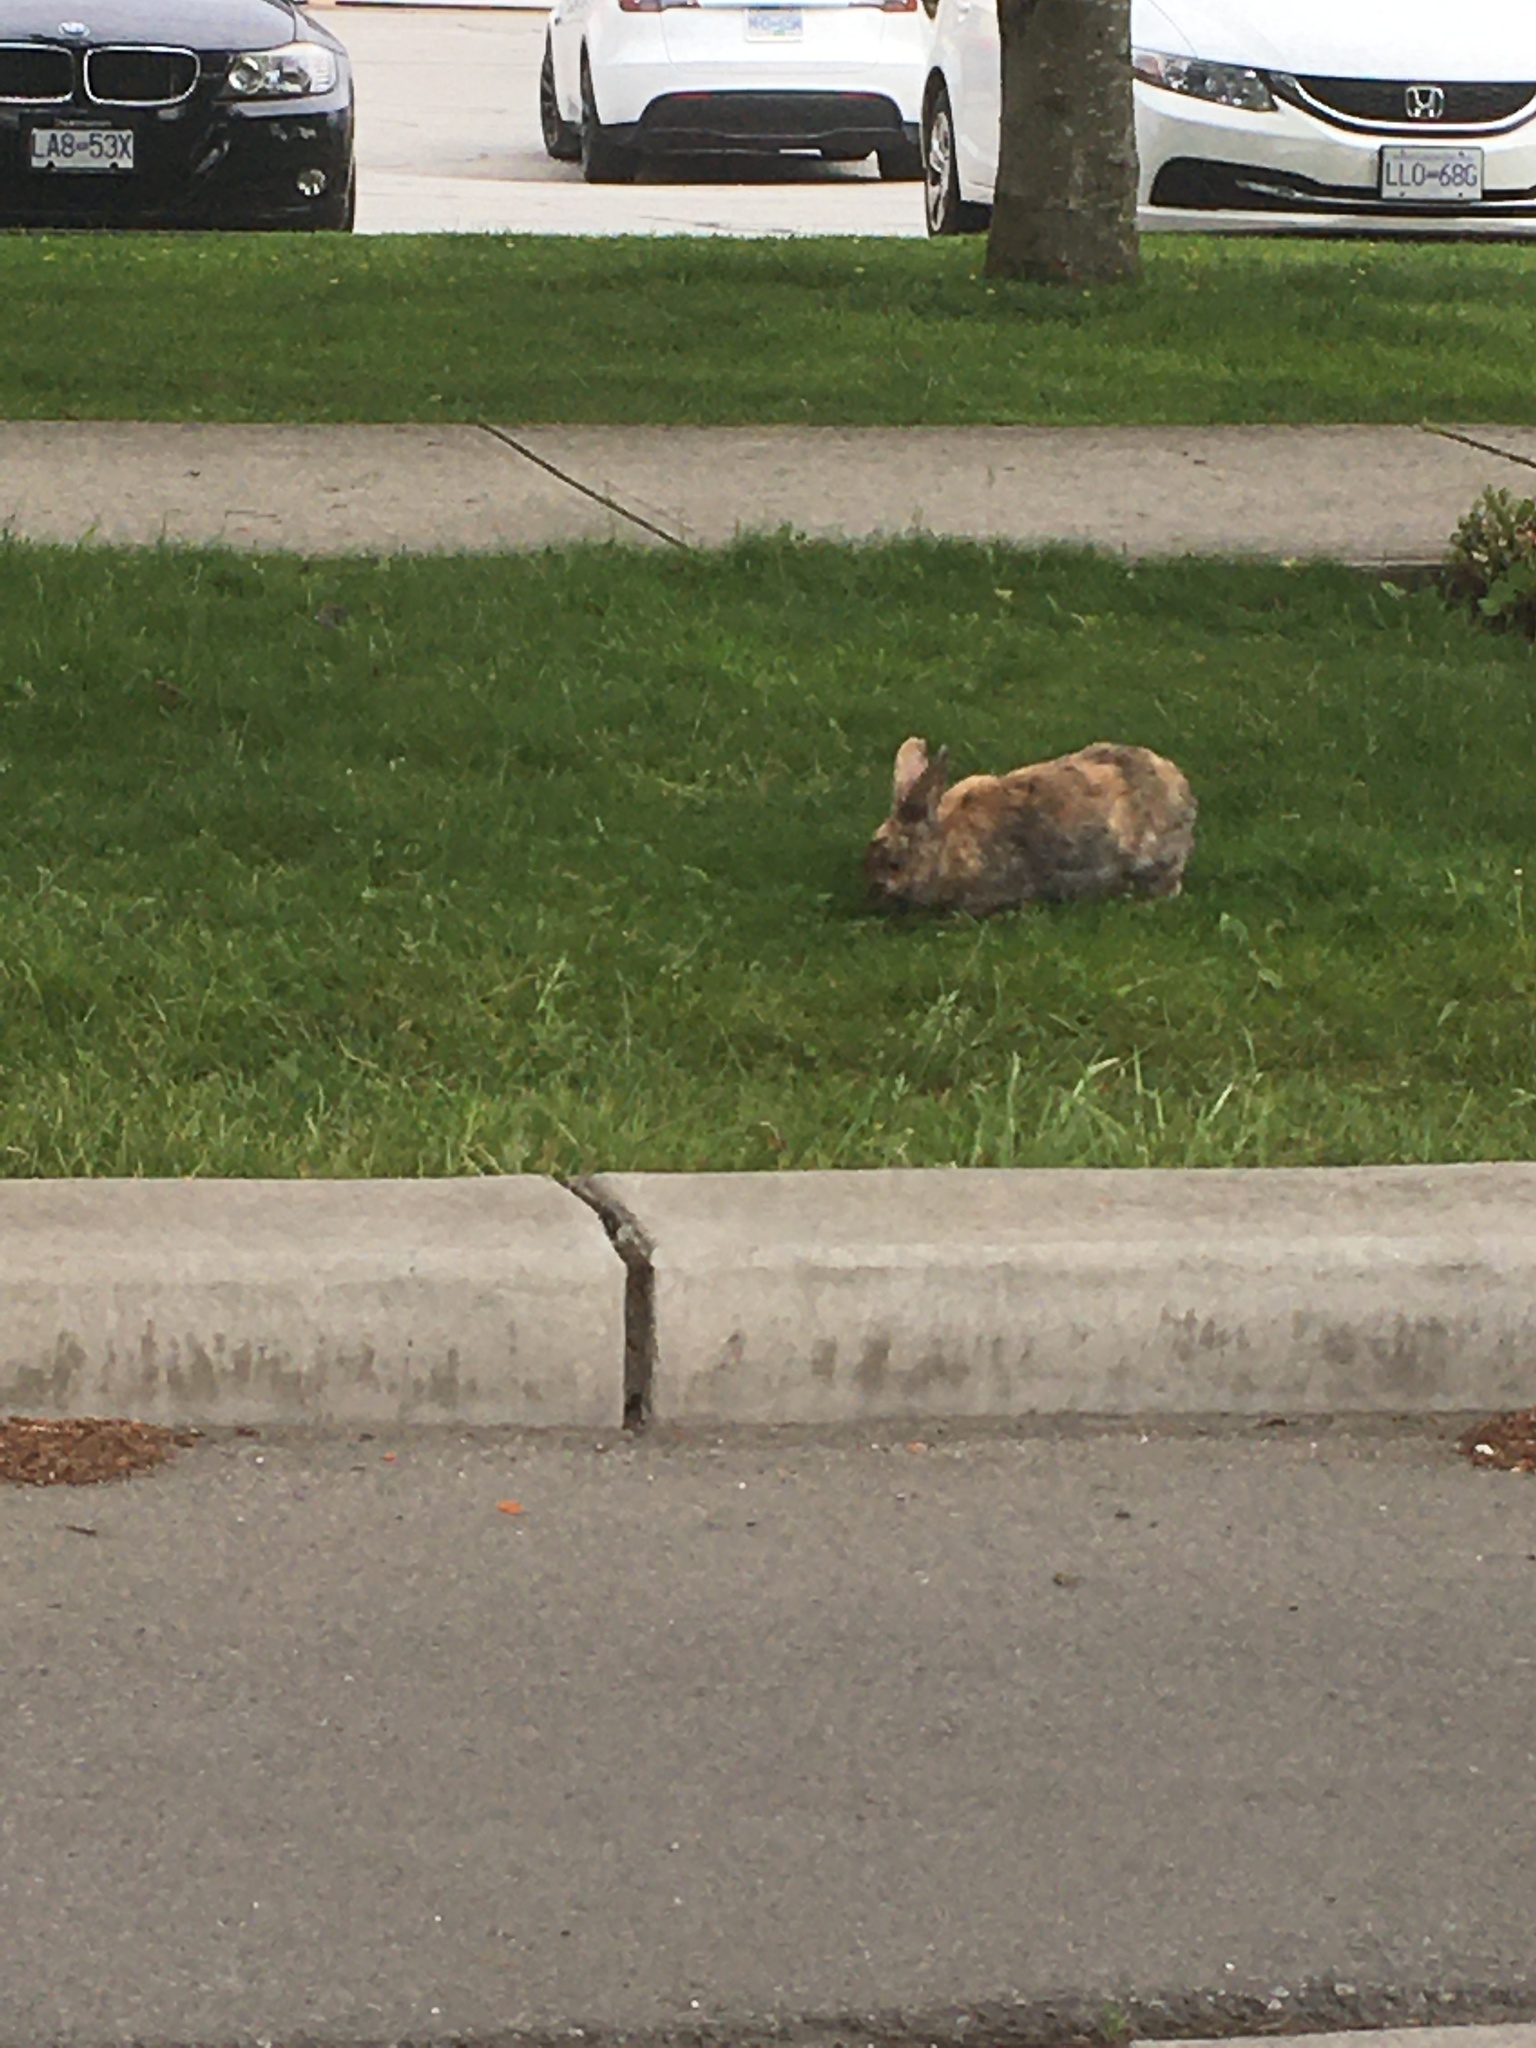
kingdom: Animalia
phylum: Chordata
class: Mammalia
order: Lagomorpha
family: Leporidae
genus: Oryctolagus
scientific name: Oryctolagus cuniculus
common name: European rabbit
